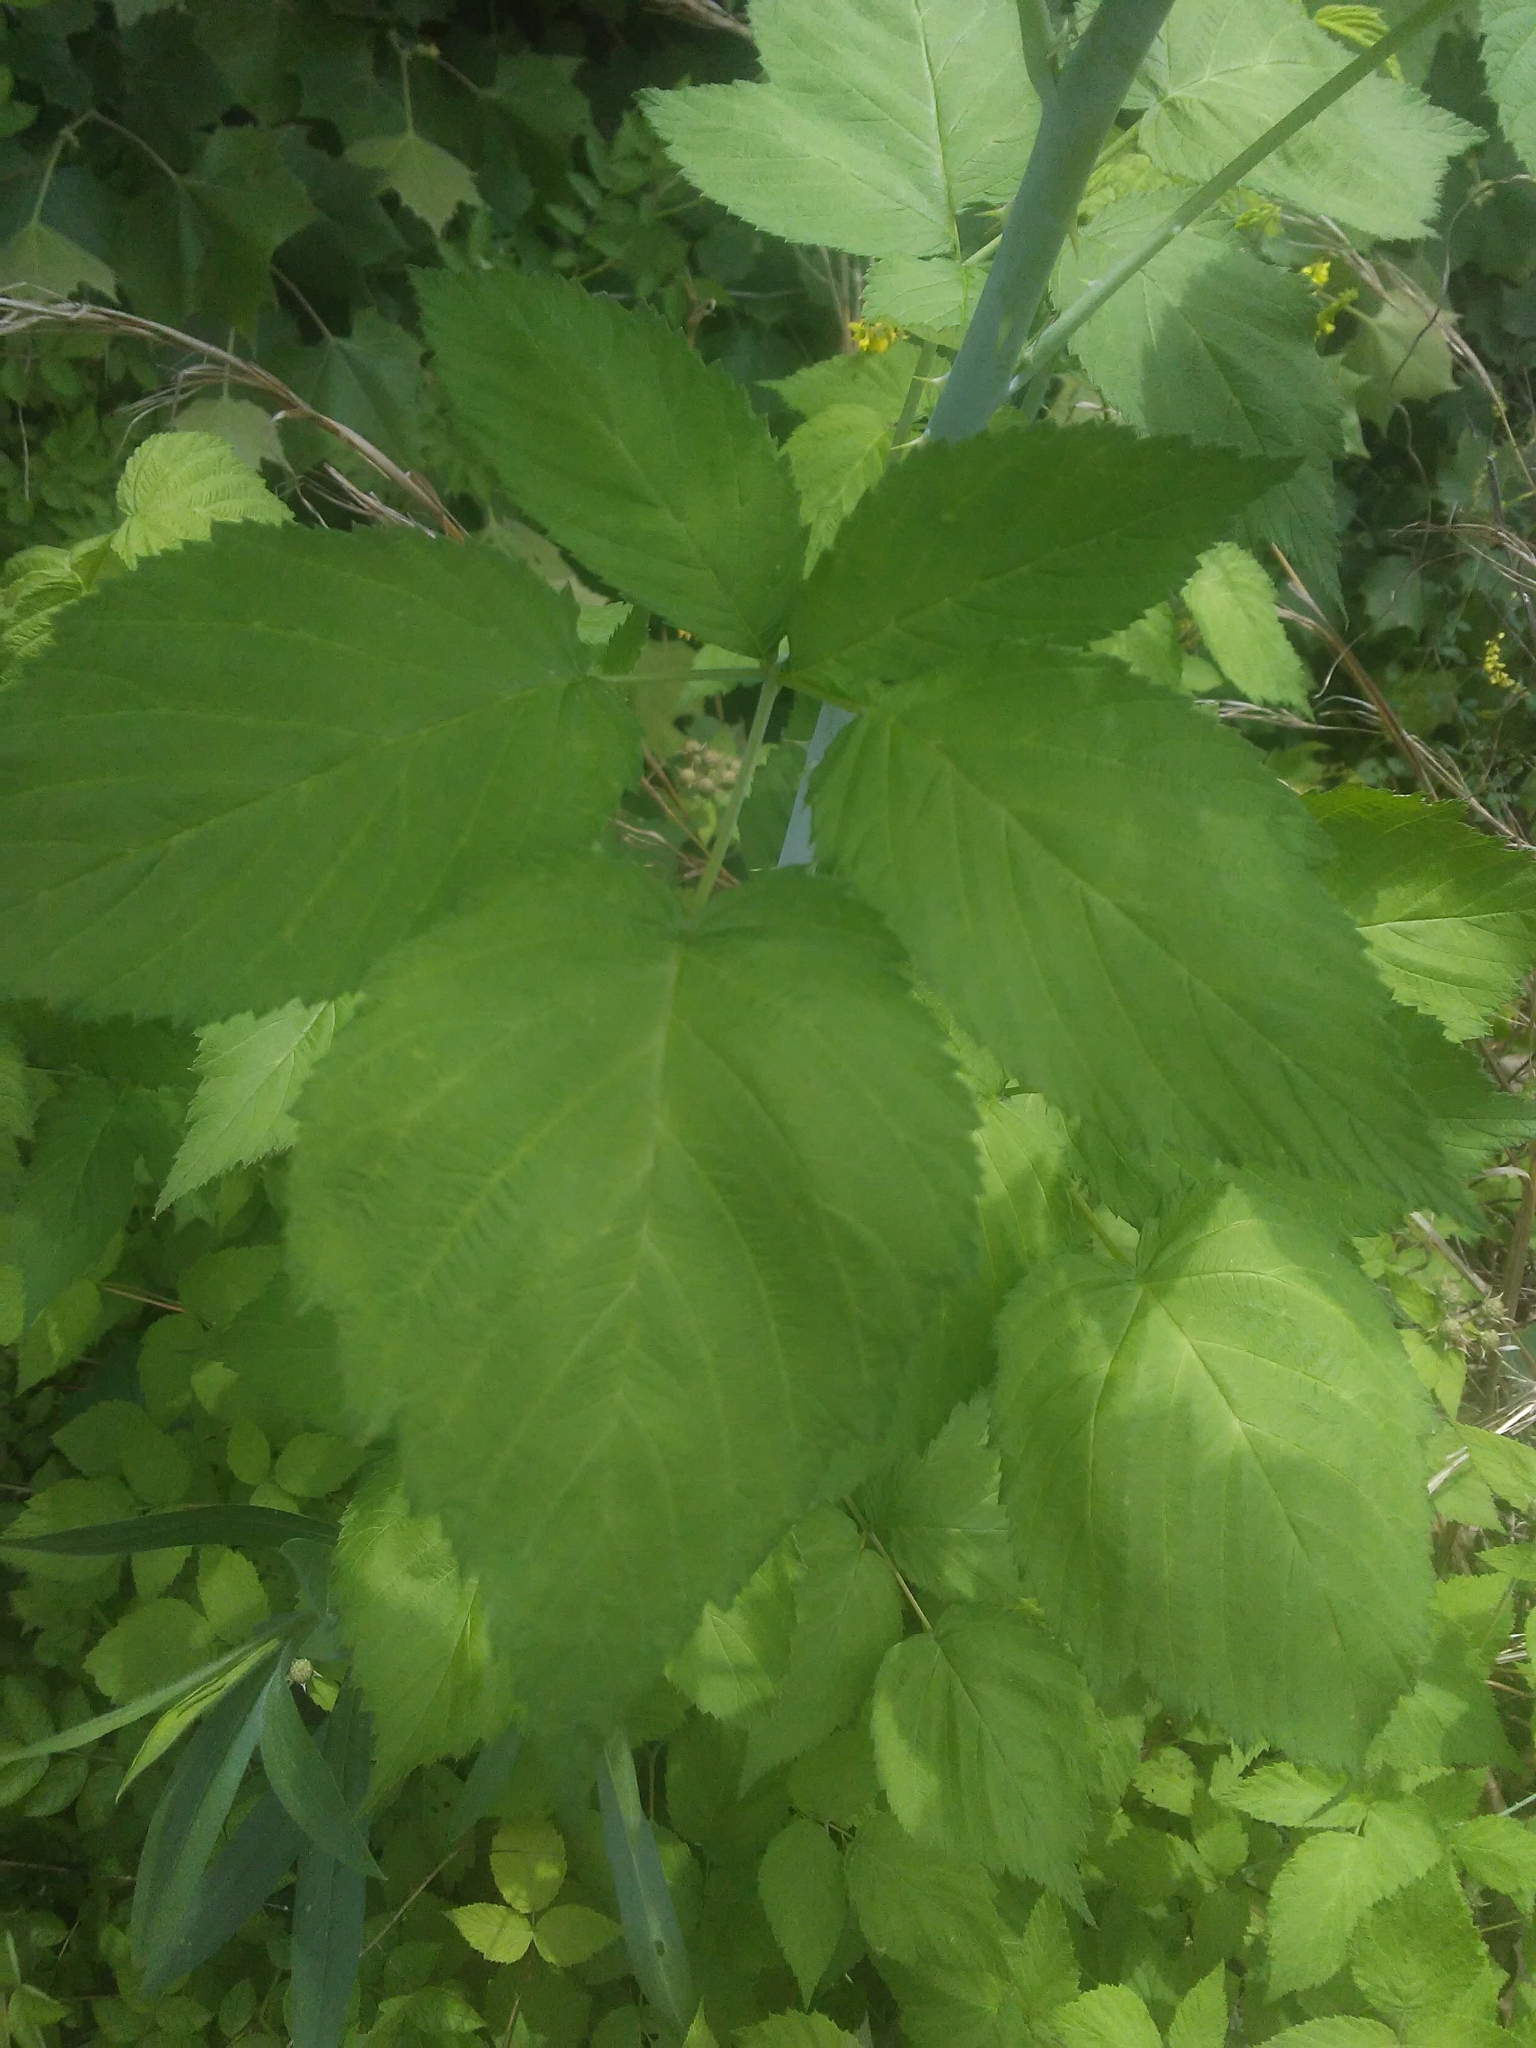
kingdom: Plantae
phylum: Tracheophyta
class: Magnoliopsida
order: Rosales
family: Rosaceae
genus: Rubus
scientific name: Rubus occidentalis
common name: Black raspberry
